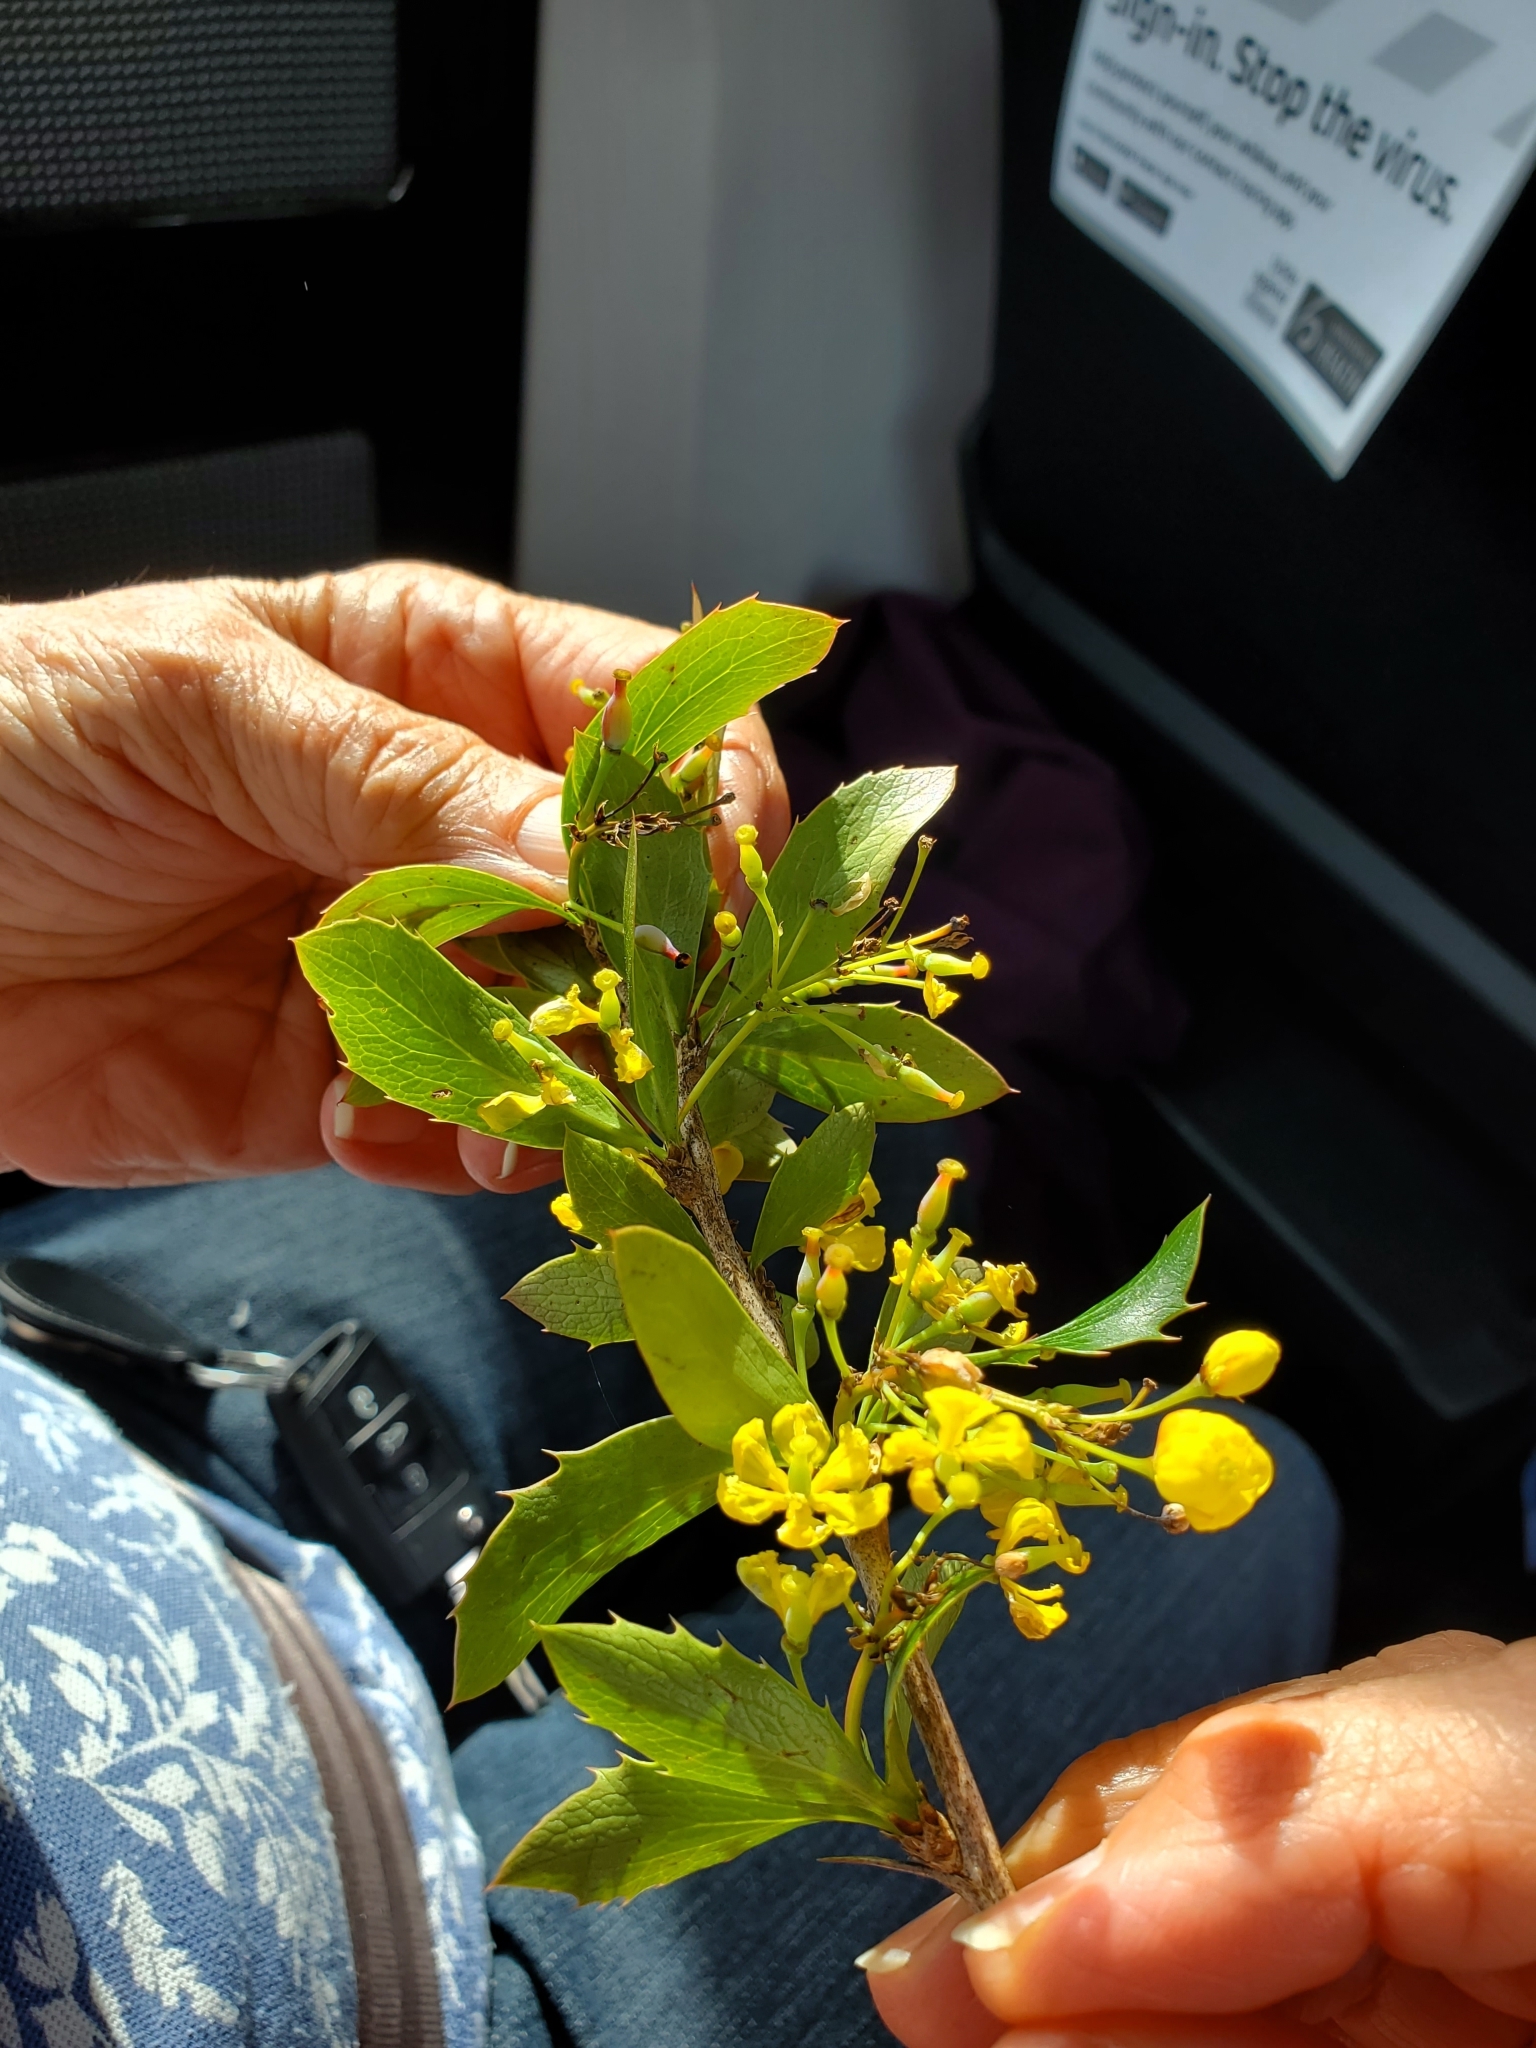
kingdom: Plantae
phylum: Tracheophyta
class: Magnoliopsida
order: Ranunculales
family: Berberidaceae
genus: Berberis
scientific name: Berberis glaucocarpa
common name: Great barberry
